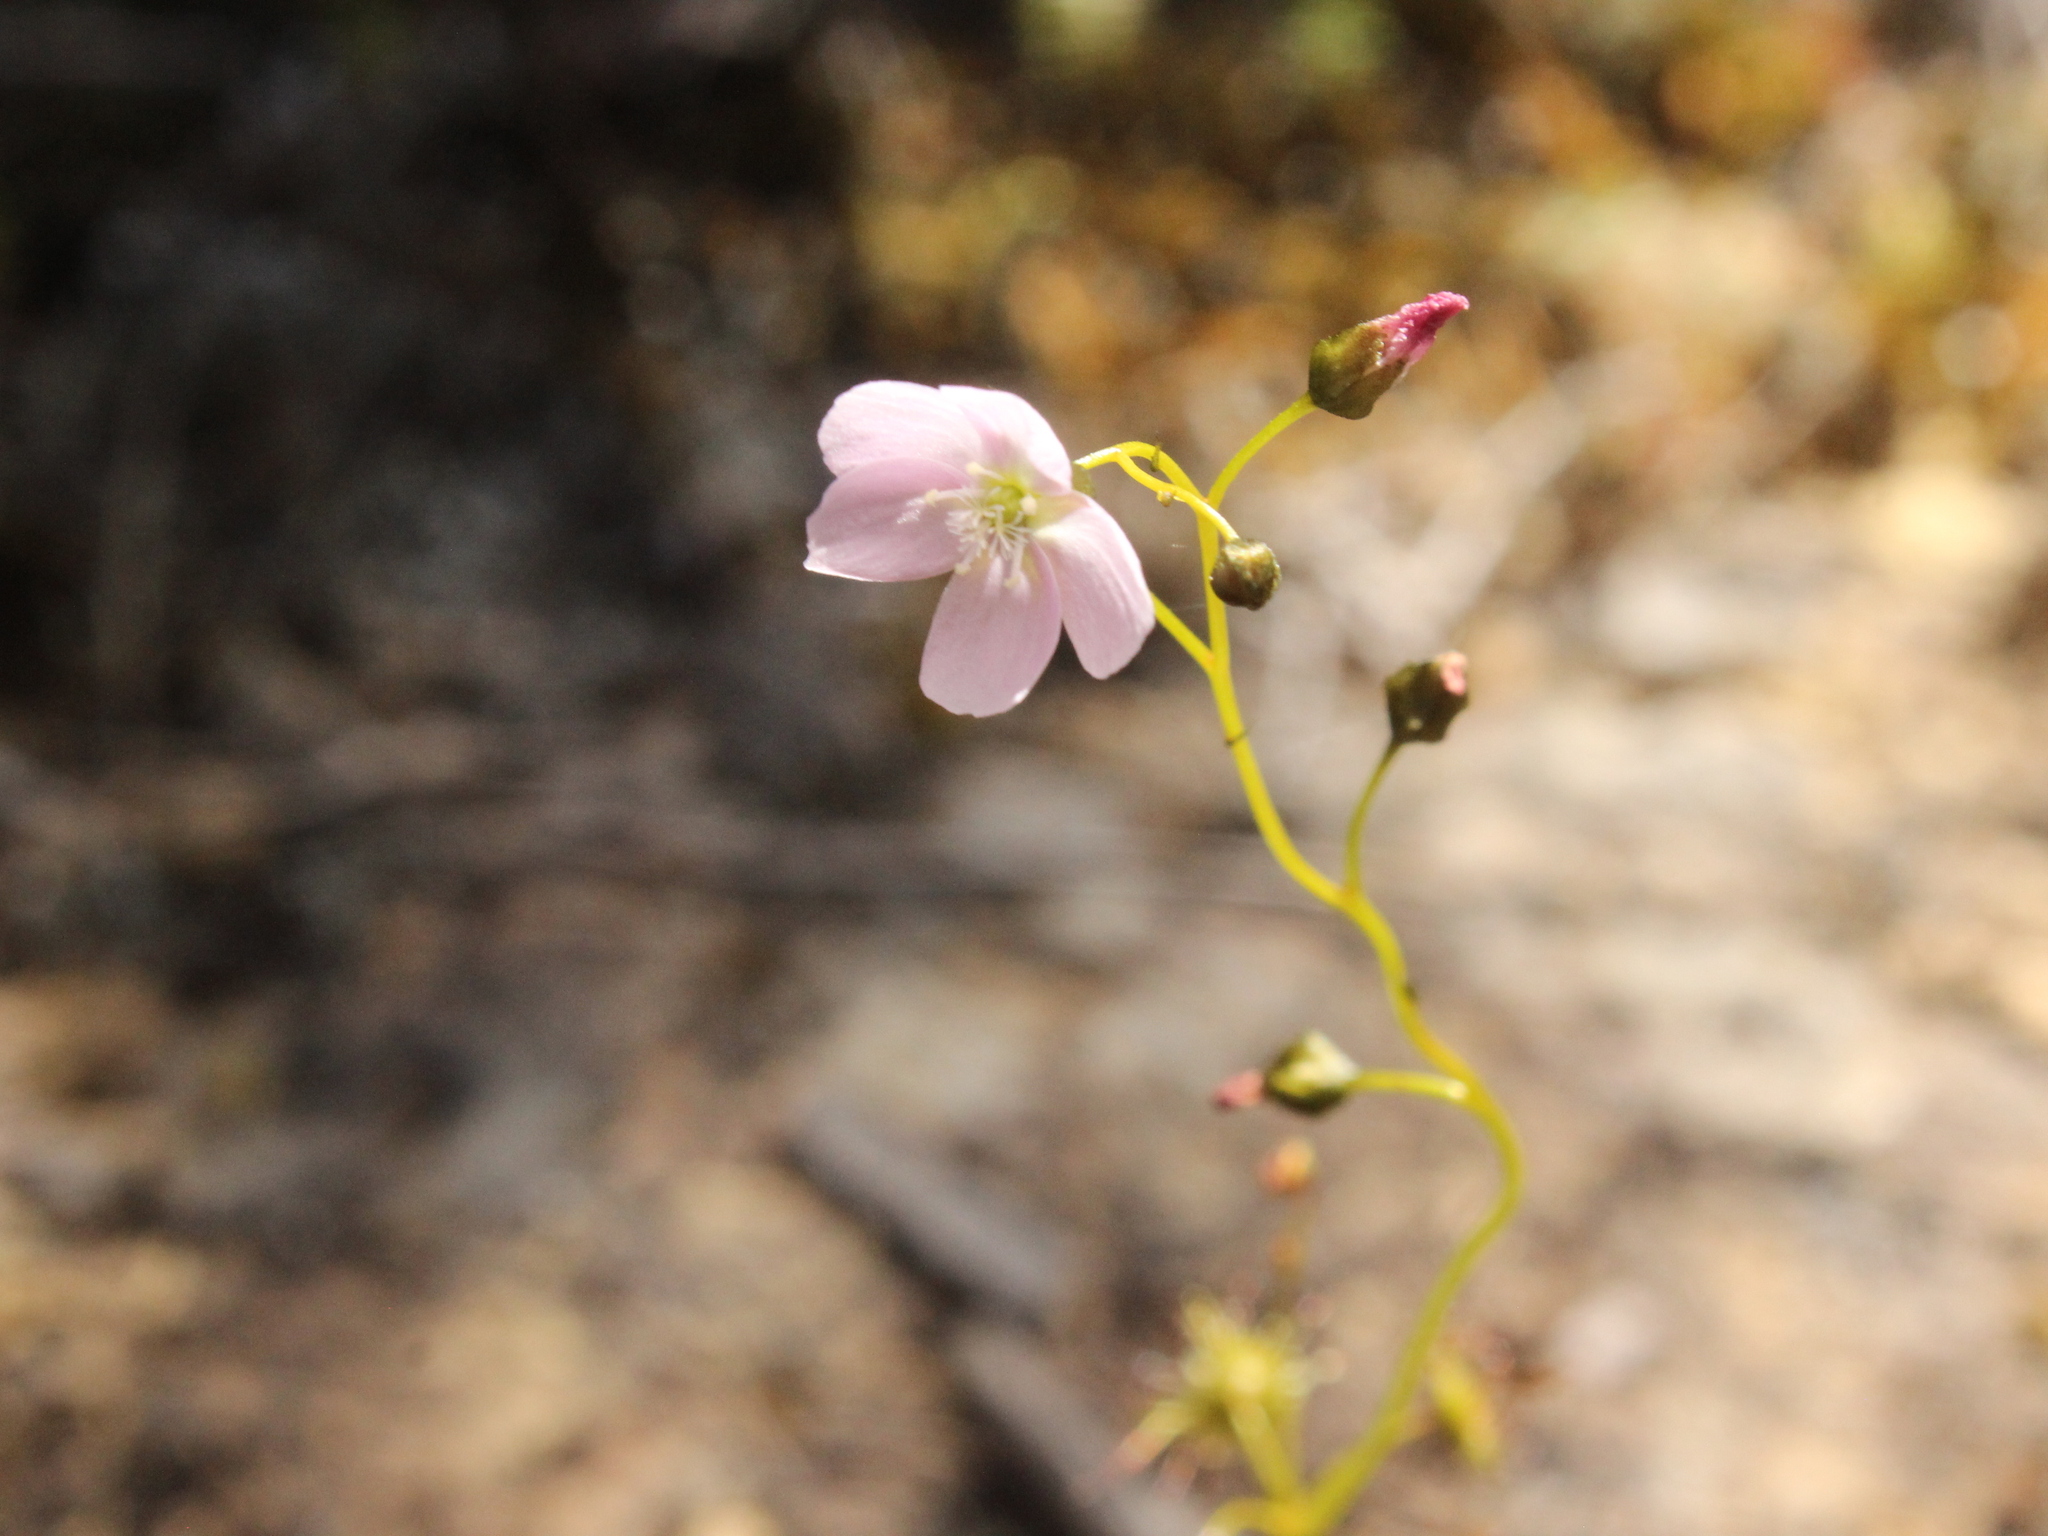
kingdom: Plantae
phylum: Tracheophyta
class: Magnoliopsida
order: Caryophyllales
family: Droseraceae
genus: Drosera
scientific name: Drosera peltata
